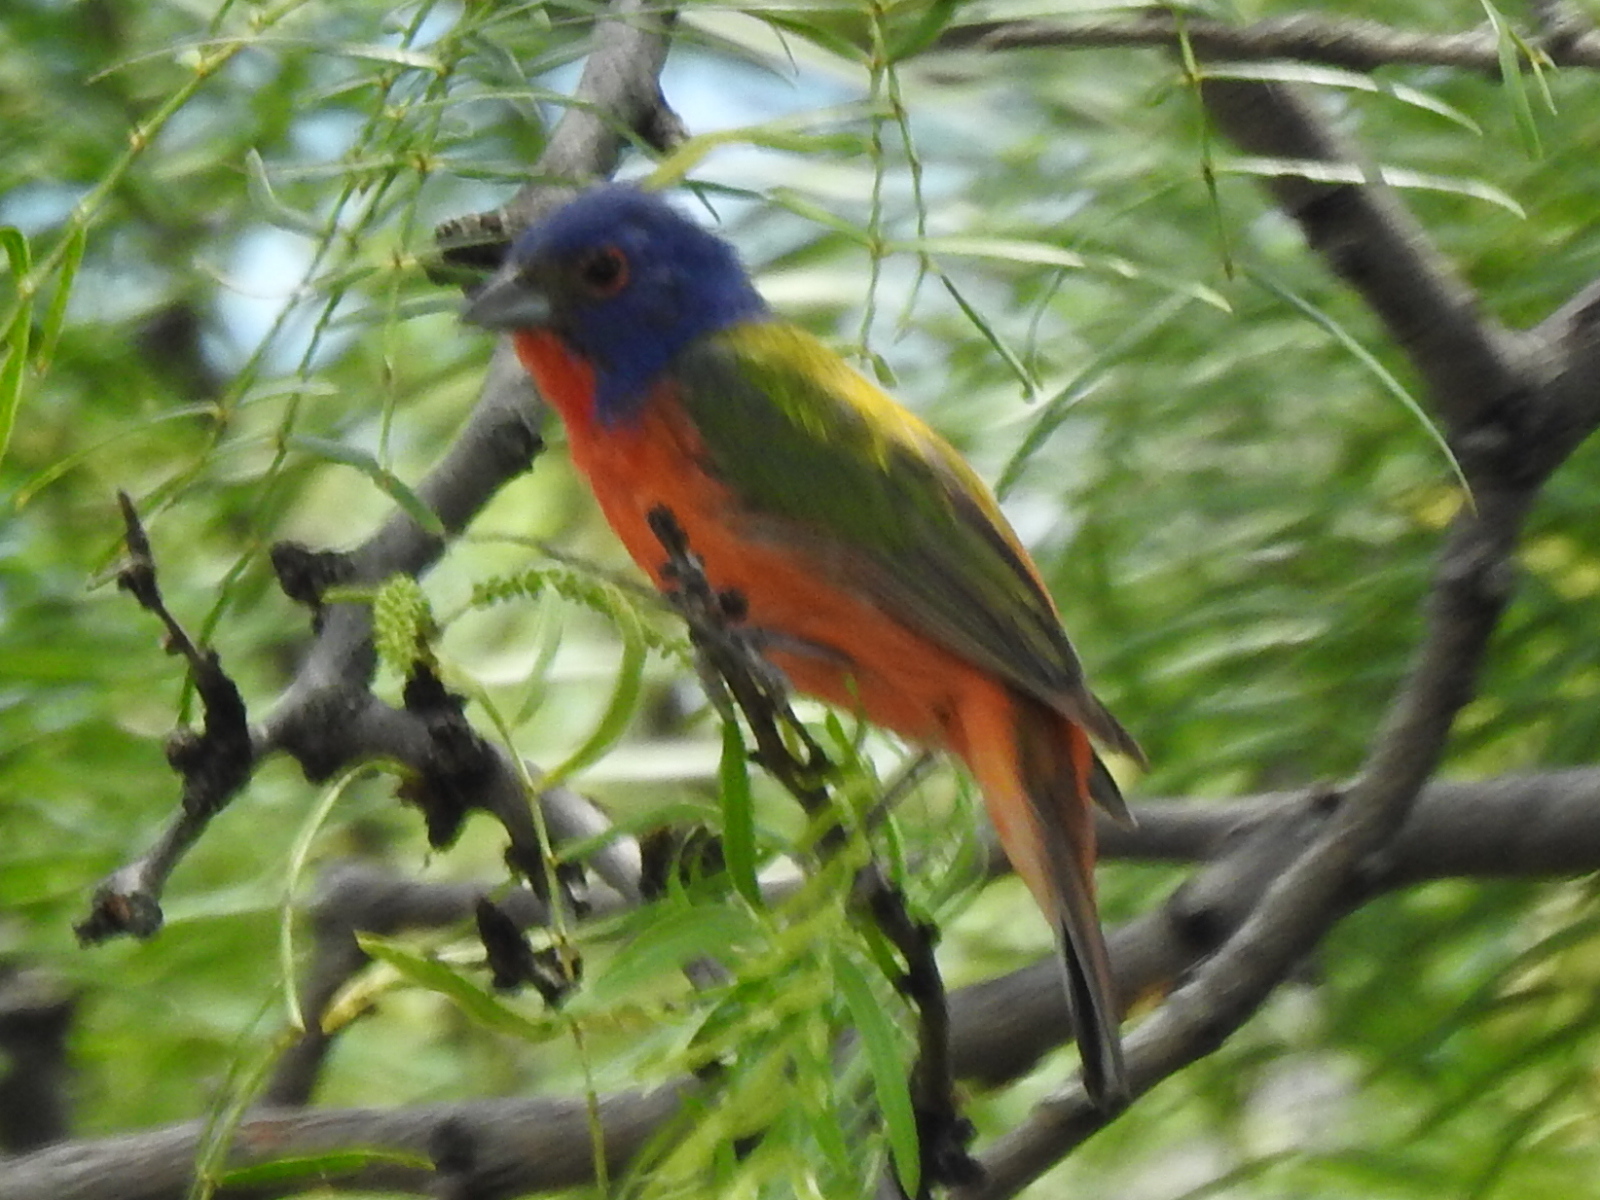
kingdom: Animalia
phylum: Chordata
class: Aves
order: Passeriformes
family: Cardinalidae
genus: Passerina
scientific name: Passerina ciris
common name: Painted bunting
